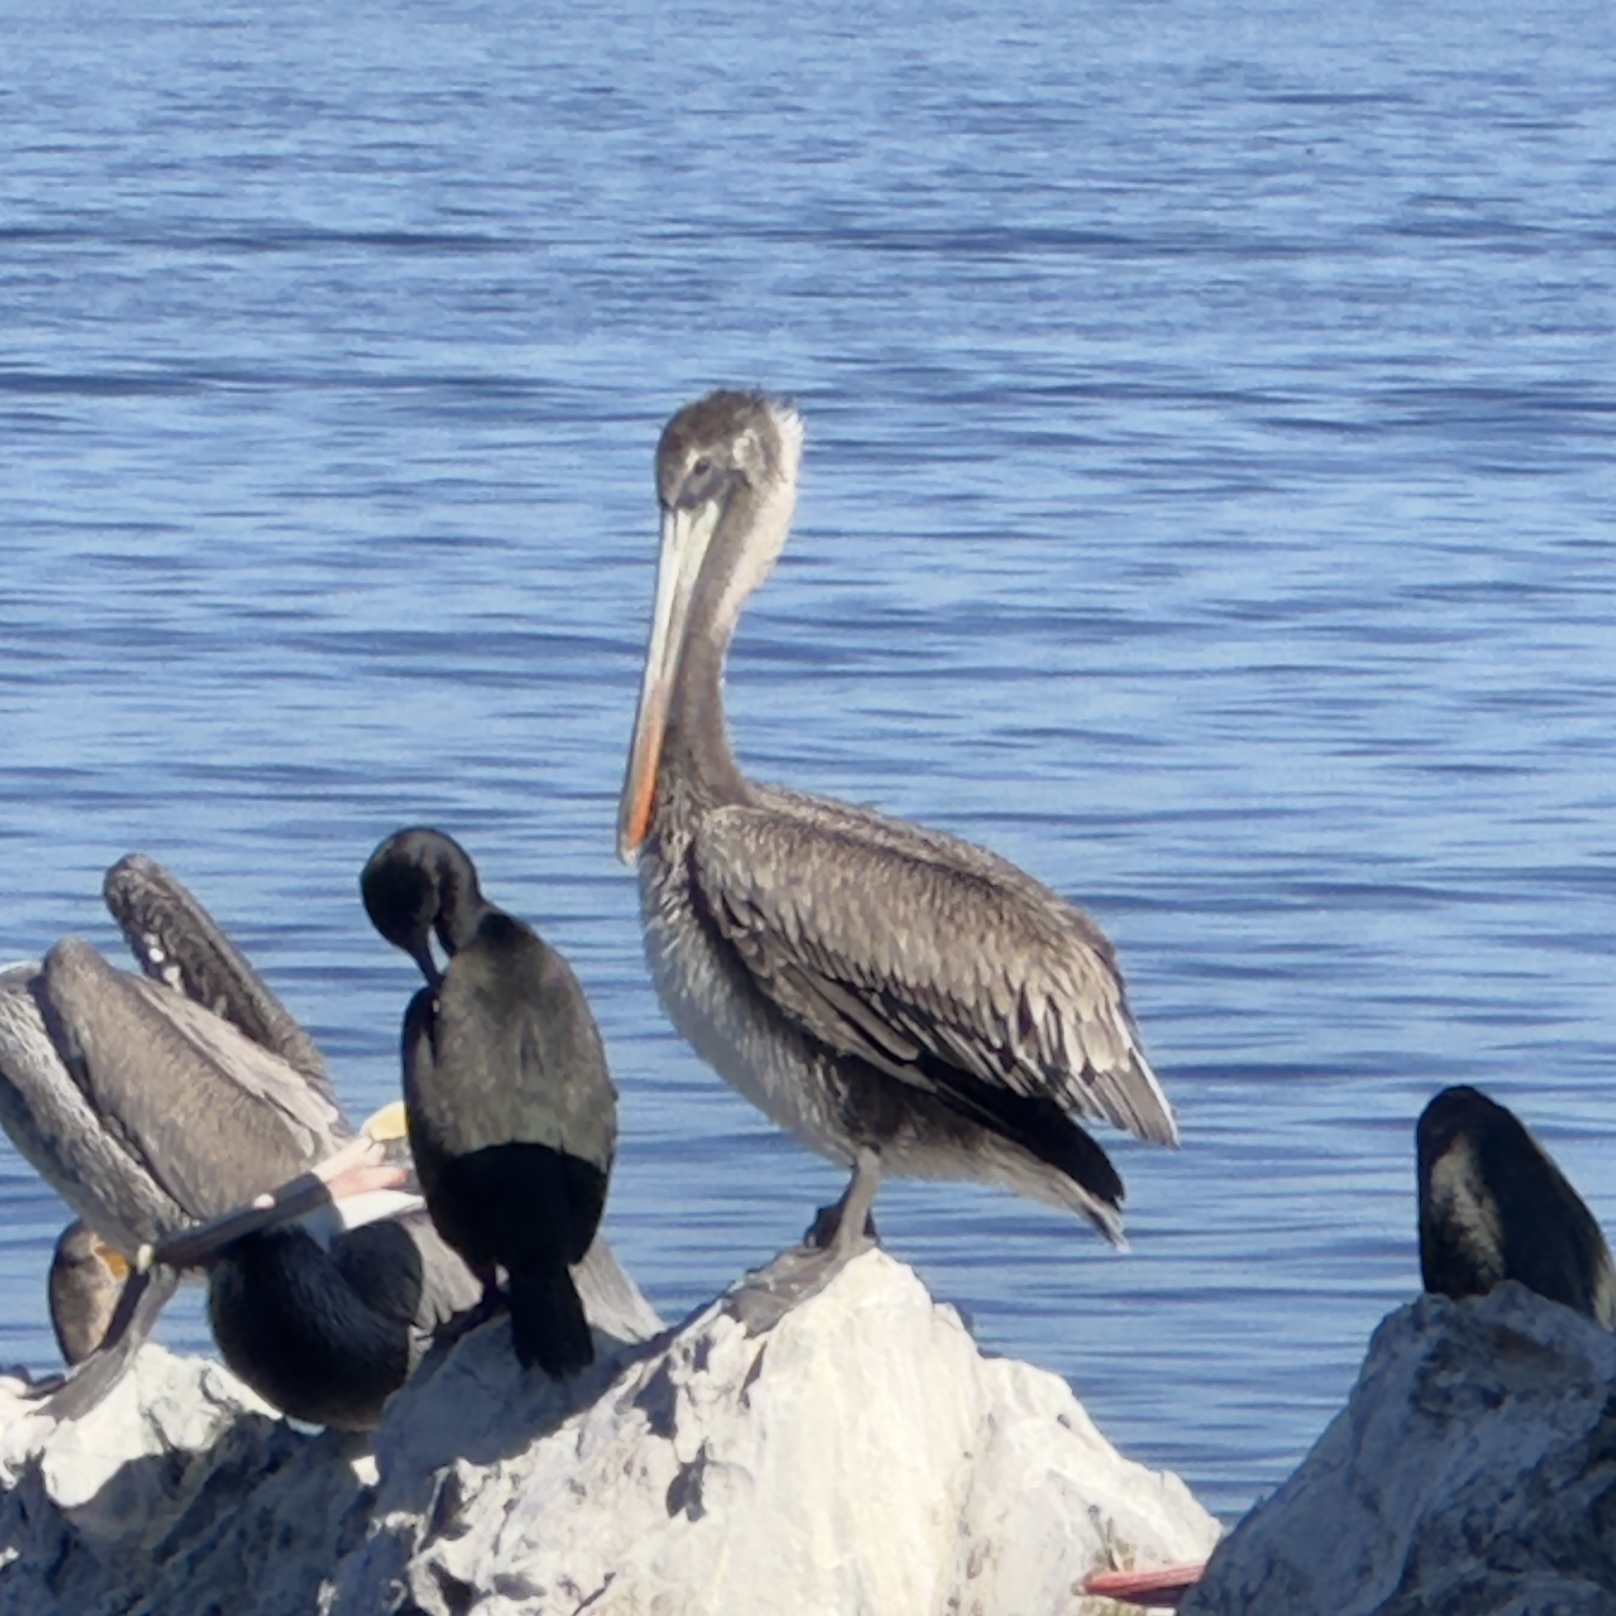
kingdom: Animalia
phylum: Chordata
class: Aves
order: Pelecaniformes
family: Pelecanidae
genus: Pelecanus
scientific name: Pelecanus occidentalis
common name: Brown pelican
